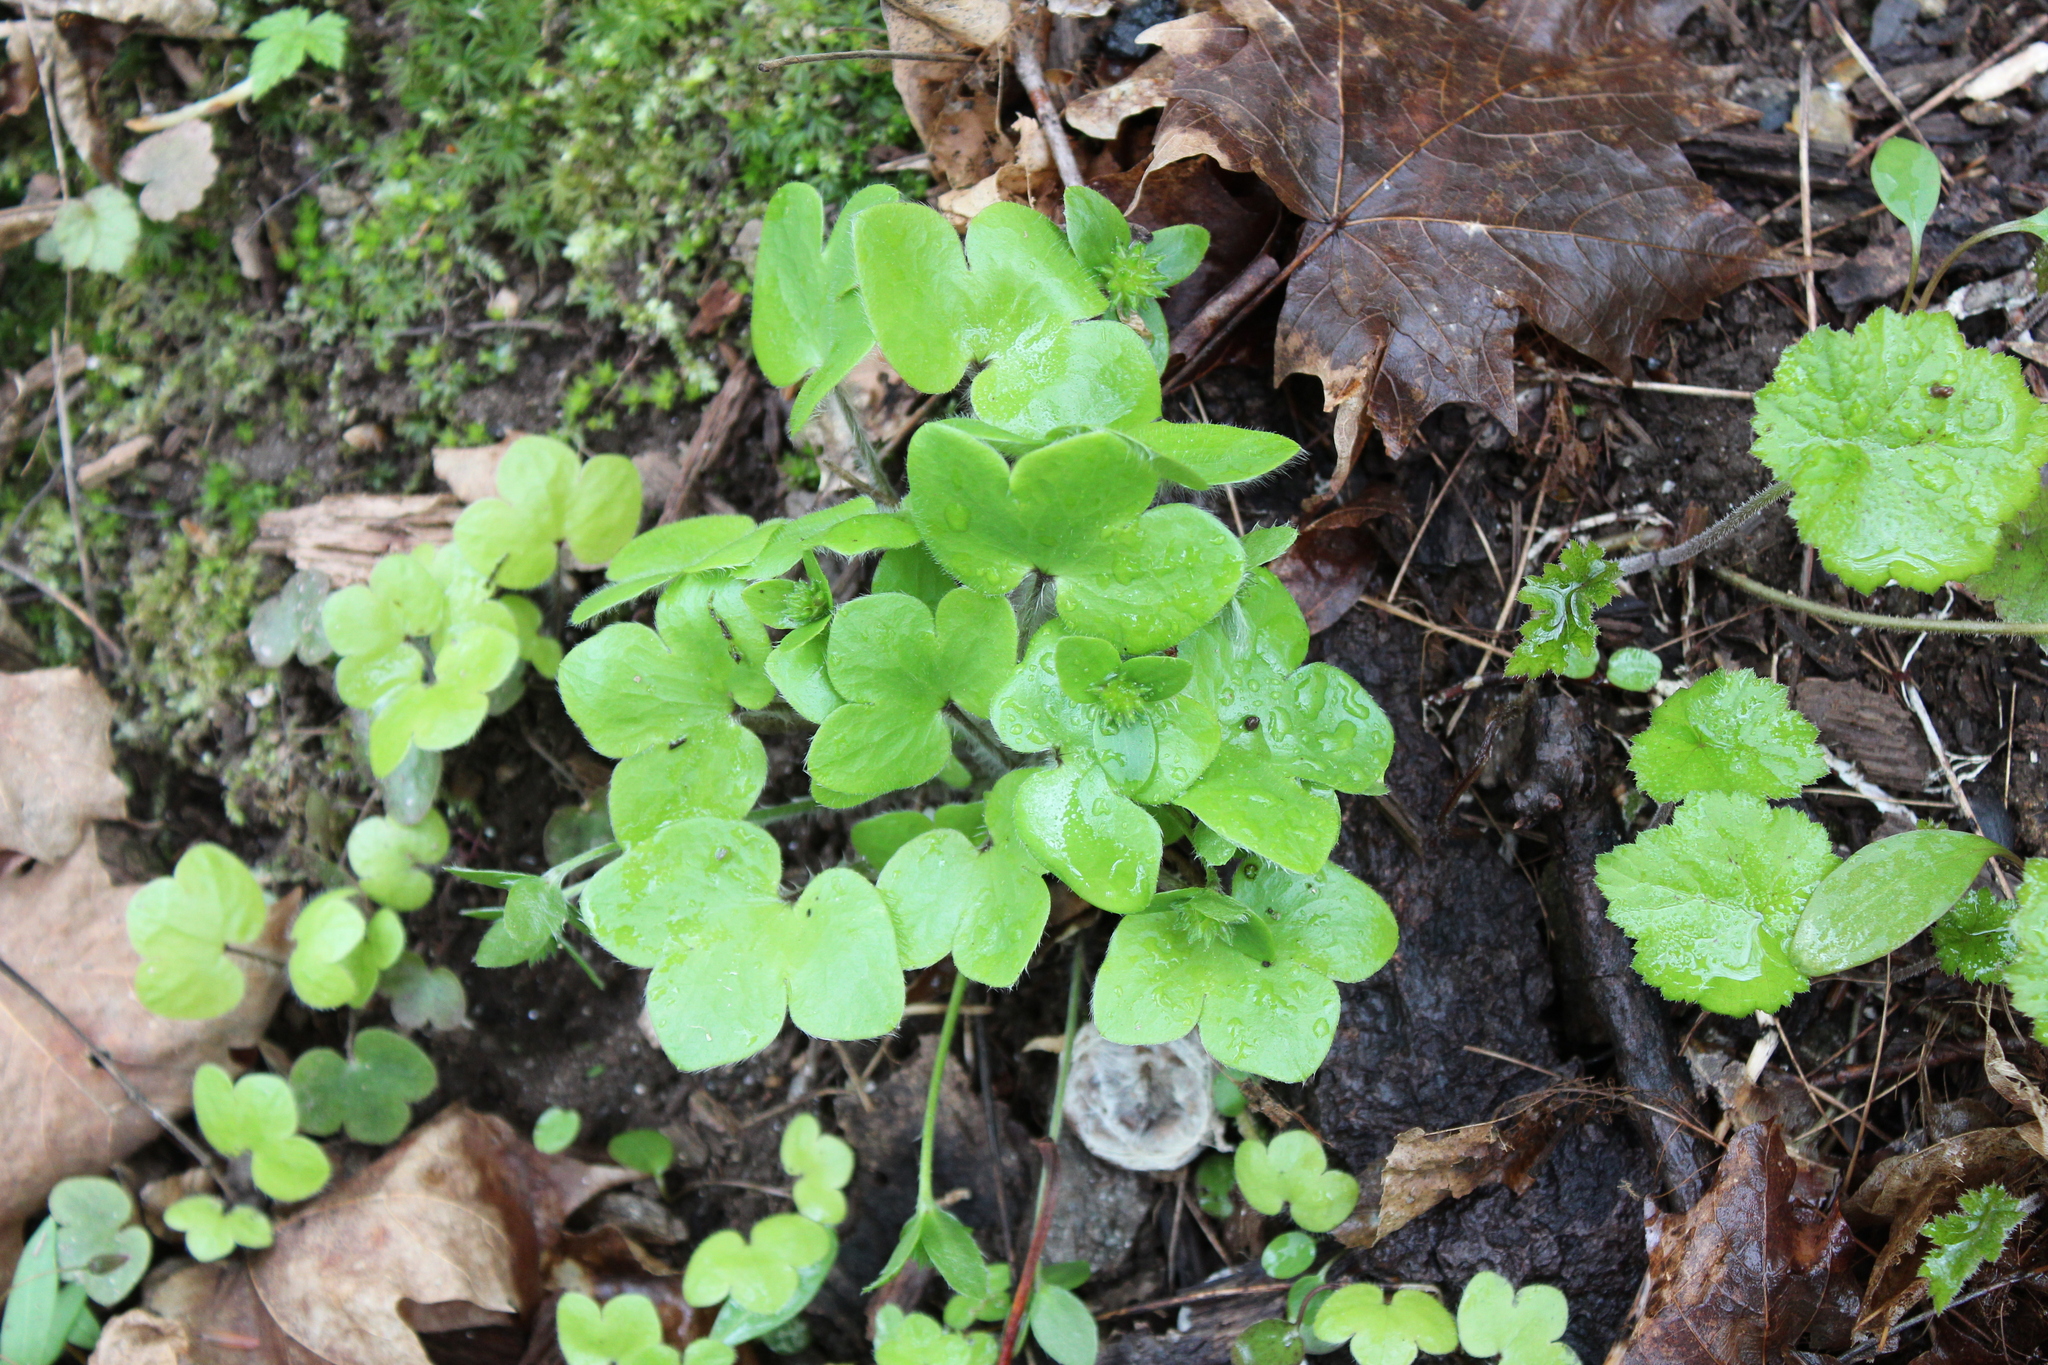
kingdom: Plantae
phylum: Tracheophyta
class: Magnoliopsida
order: Ranunculales
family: Ranunculaceae
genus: Hepatica
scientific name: Hepatica americana
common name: American hepatica
